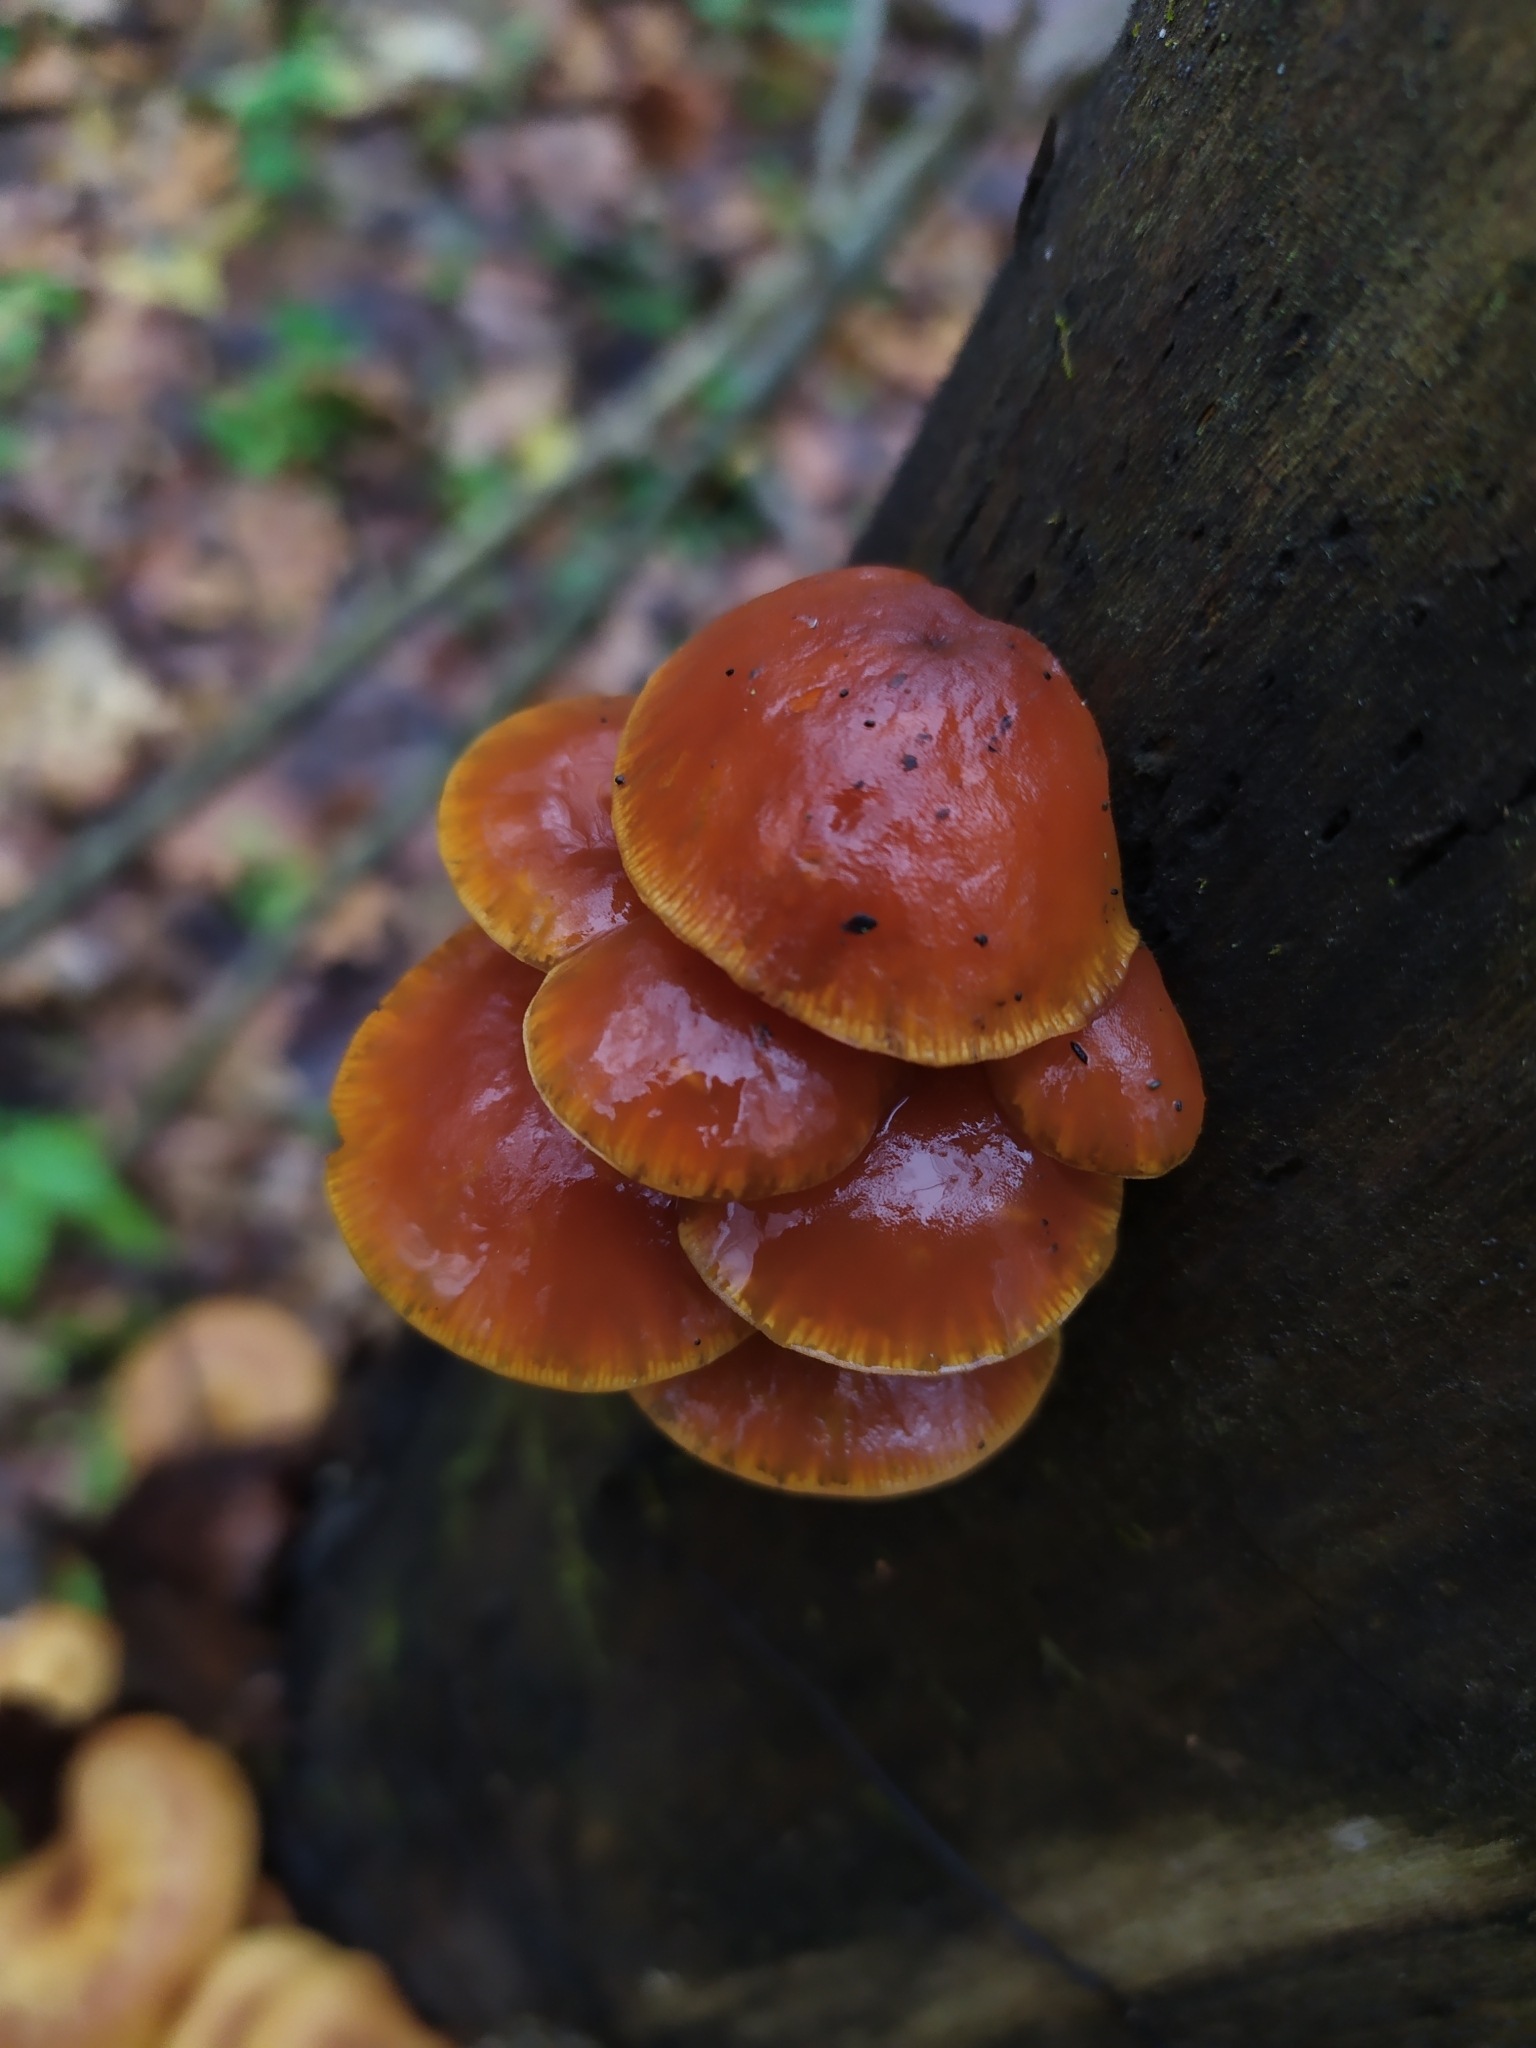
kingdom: Fungi
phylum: Basidiomycota
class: Agaricomycetes
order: Agaricales
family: Physalacriaceae
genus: Flammulina
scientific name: Flammulina
